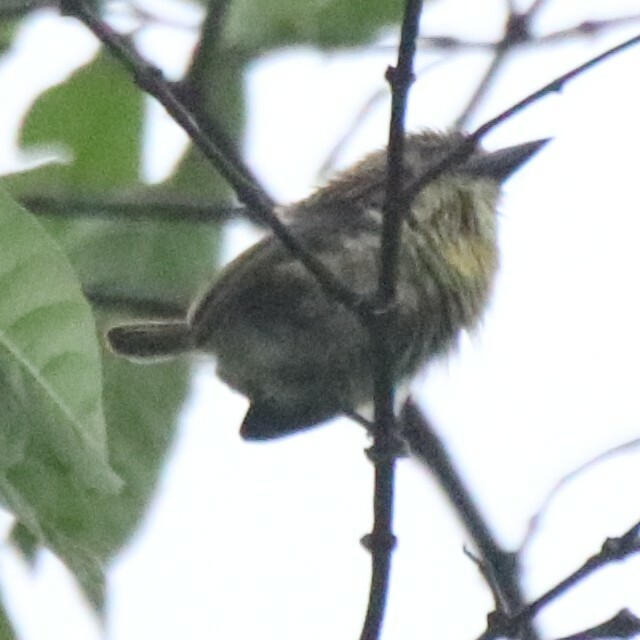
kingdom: Animalia
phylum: Chordata
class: Aves
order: Piciformes
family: Lybiidae
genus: Pogoniulus
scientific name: Pogoniulus scolopaceus
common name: Speckled tinkerbird
